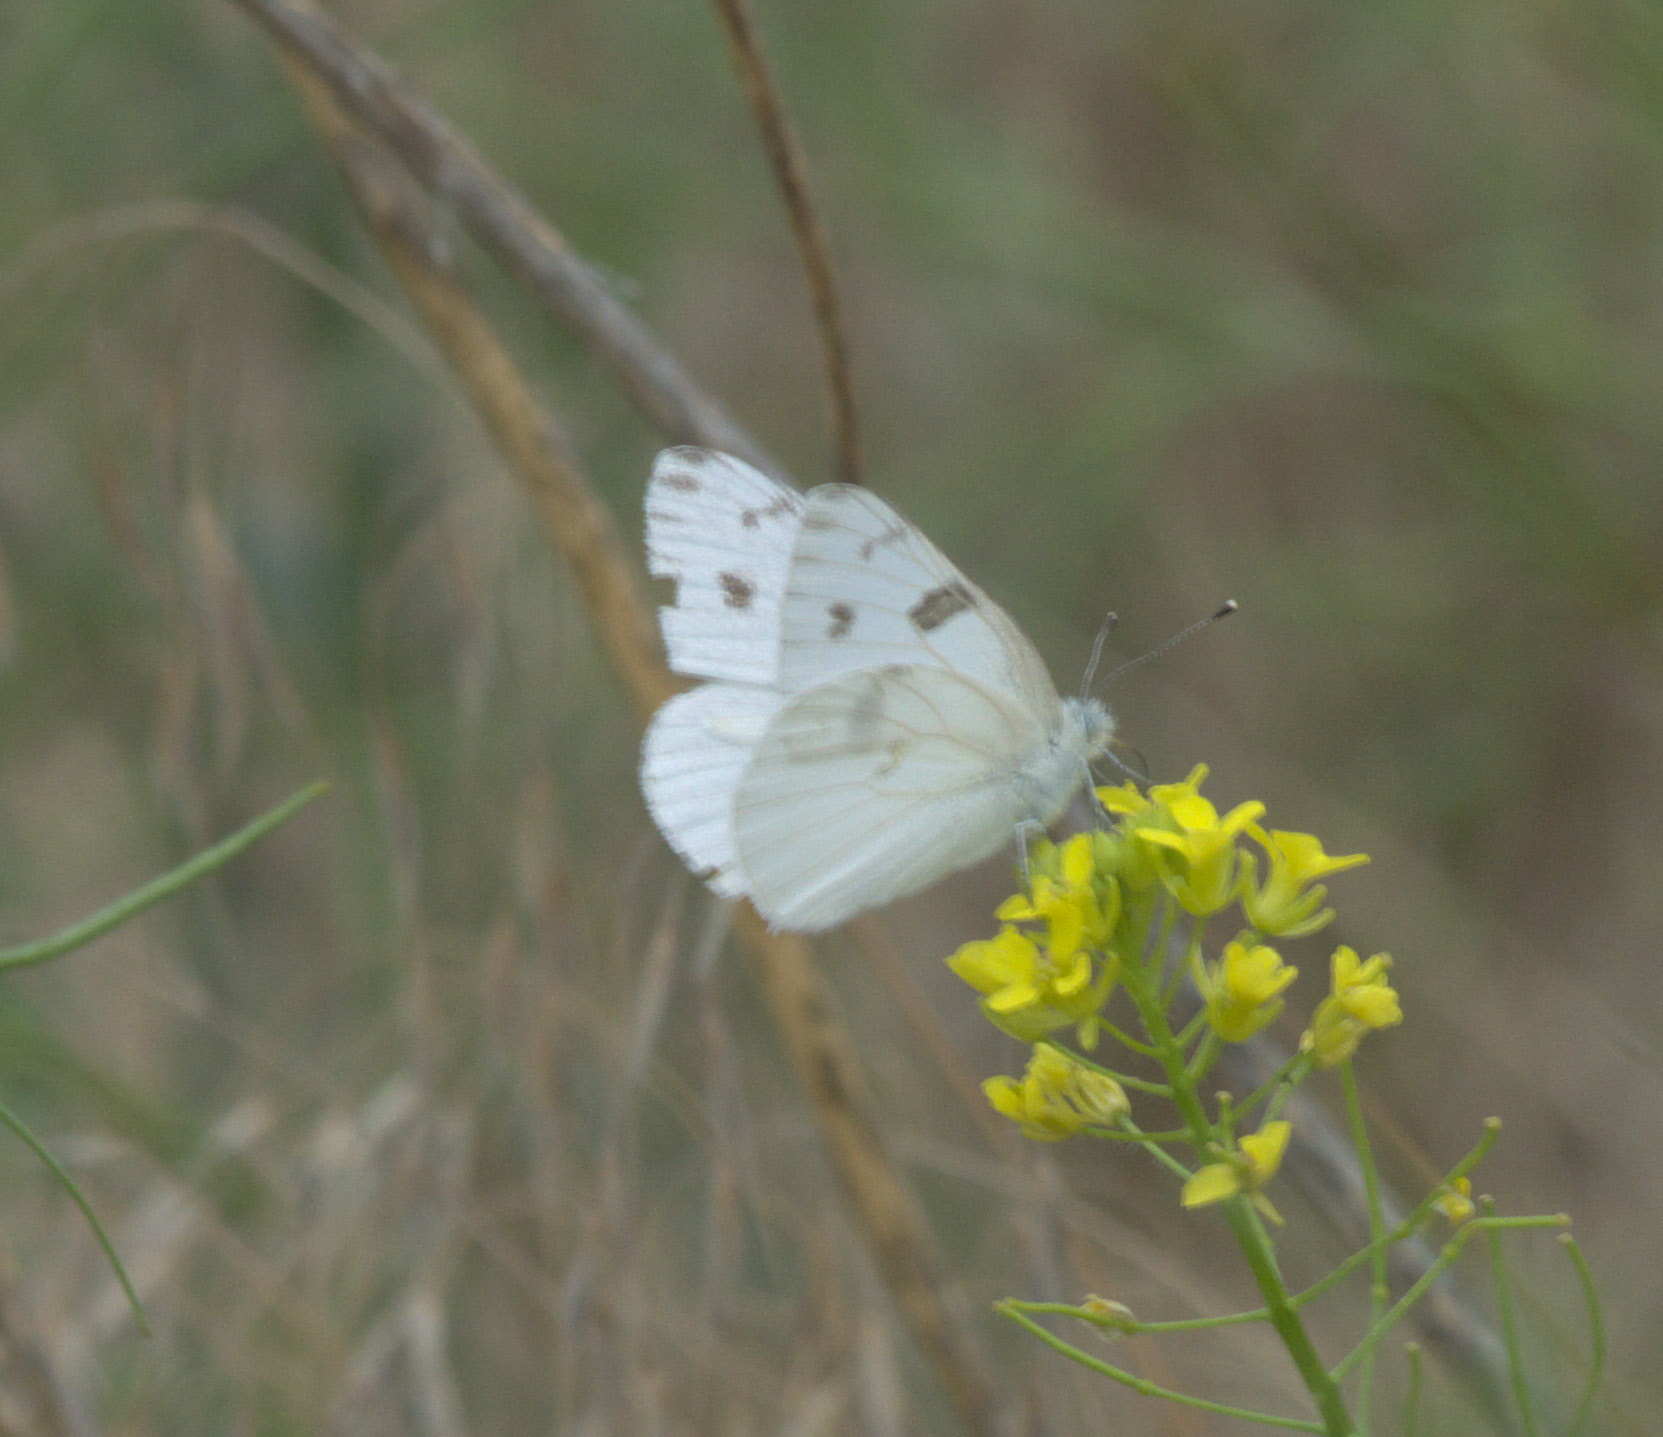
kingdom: Animalia
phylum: Arthropoda
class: Insecta
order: Lepidoptera
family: Pieridae
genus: Pontia
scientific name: Pontia protodice
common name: Checkered white
